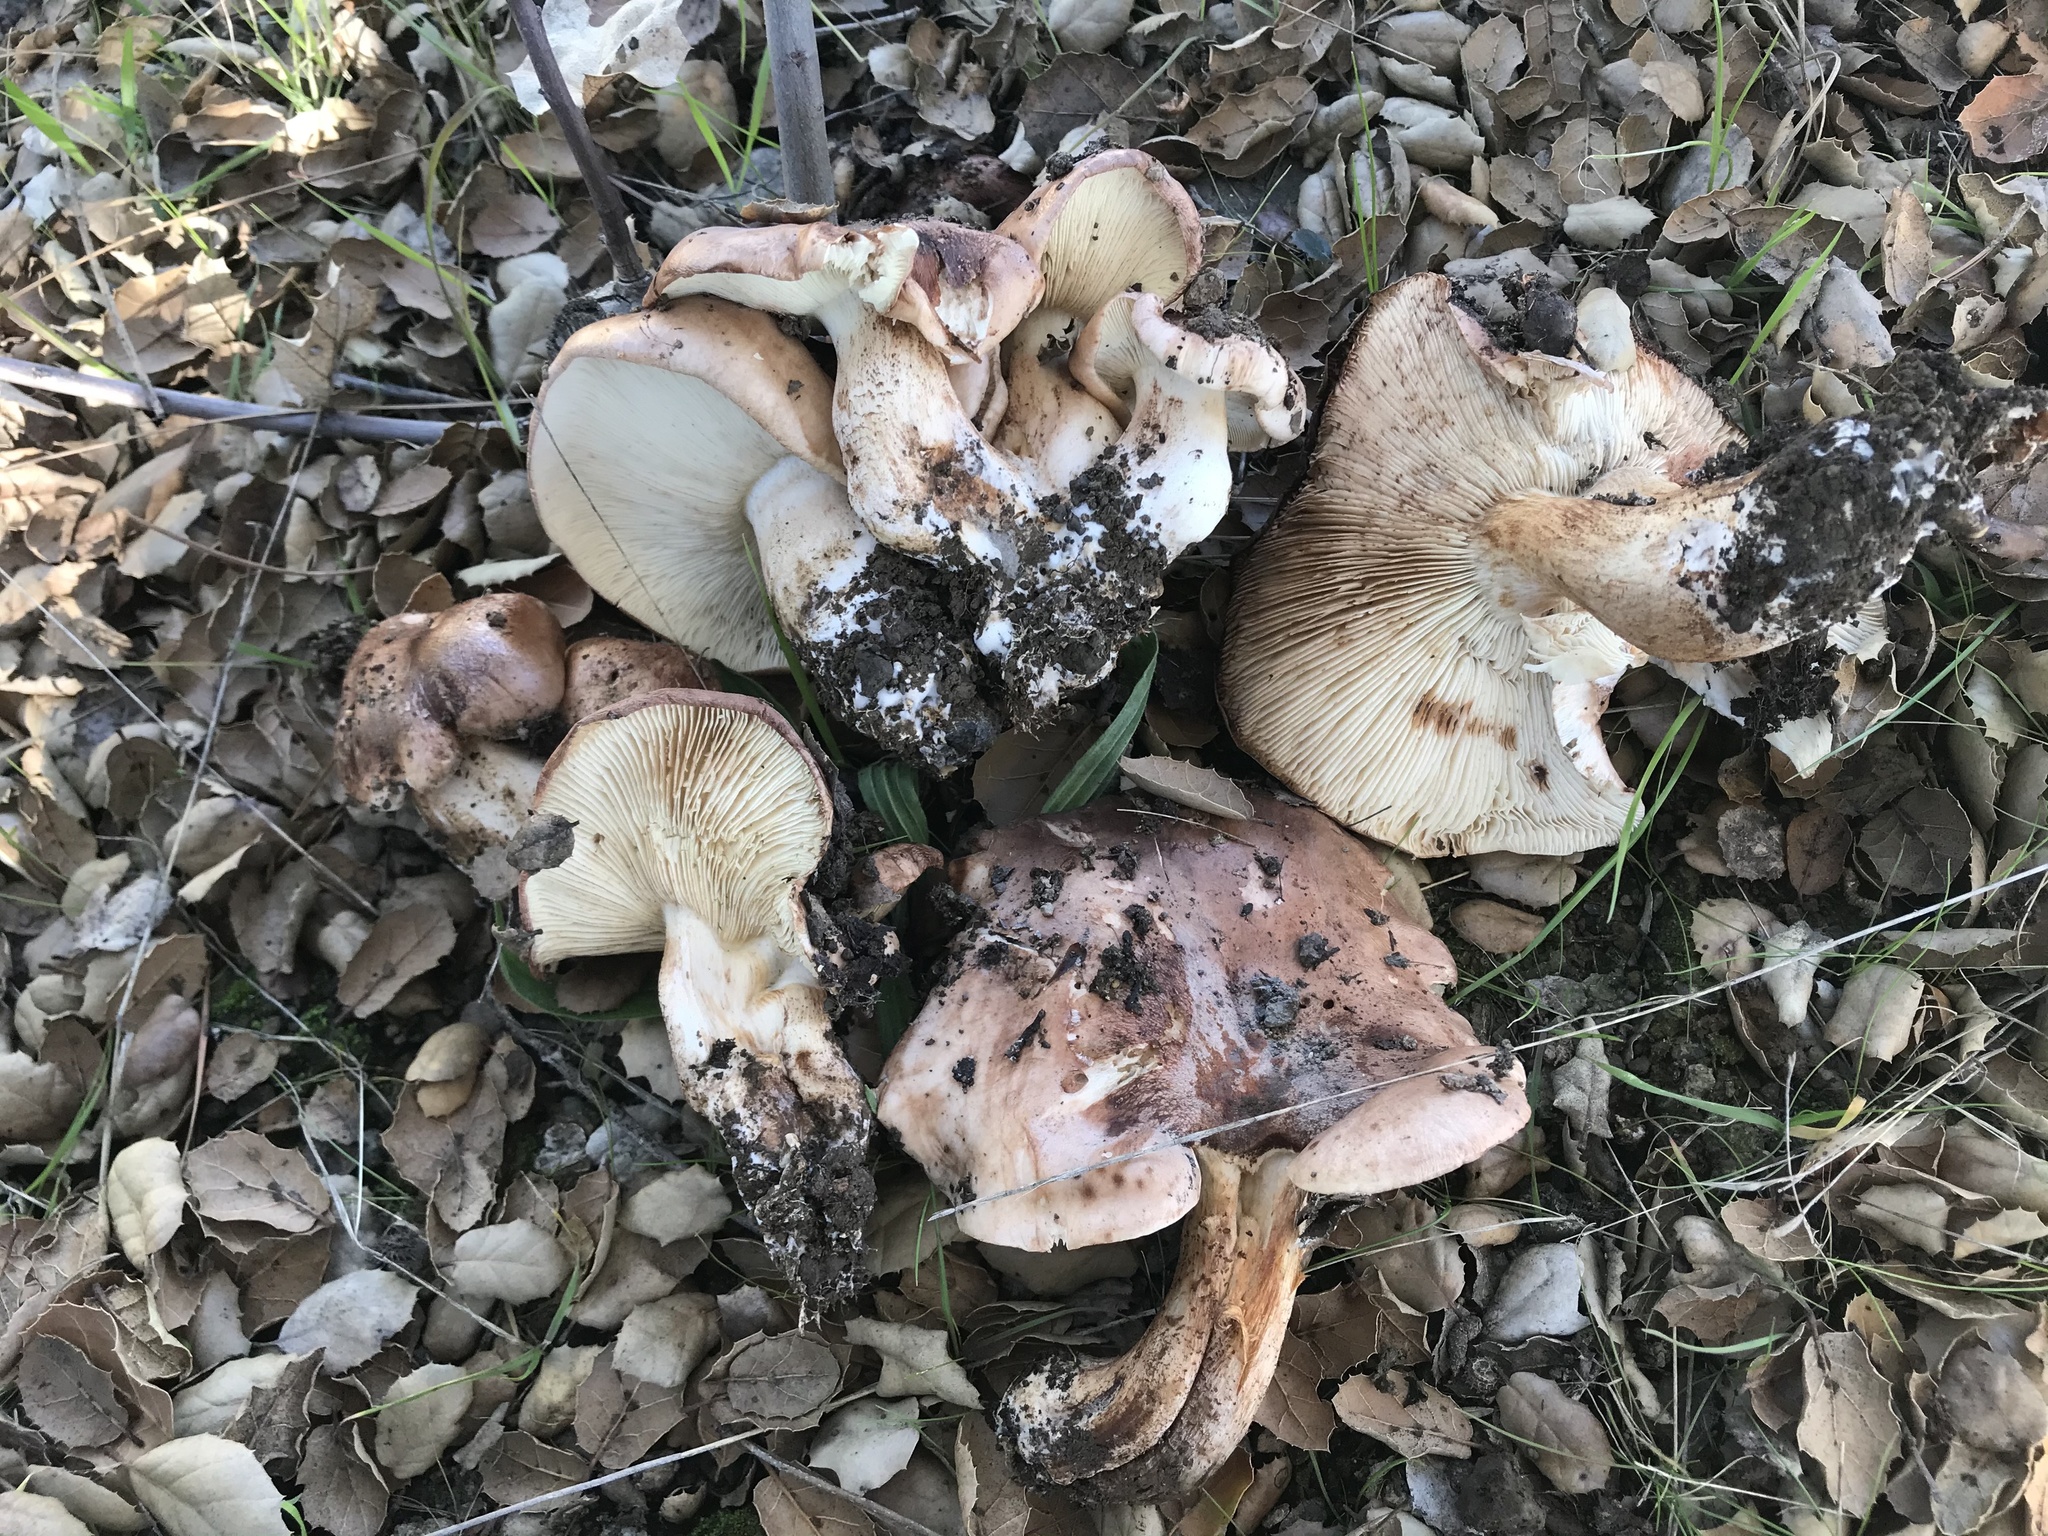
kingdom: Fungi
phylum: Basidiomycota
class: Agaricomycetes
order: Agaricales
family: Tricholomataceae
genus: Melanoleuca
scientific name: Melanoleuca dryophila
